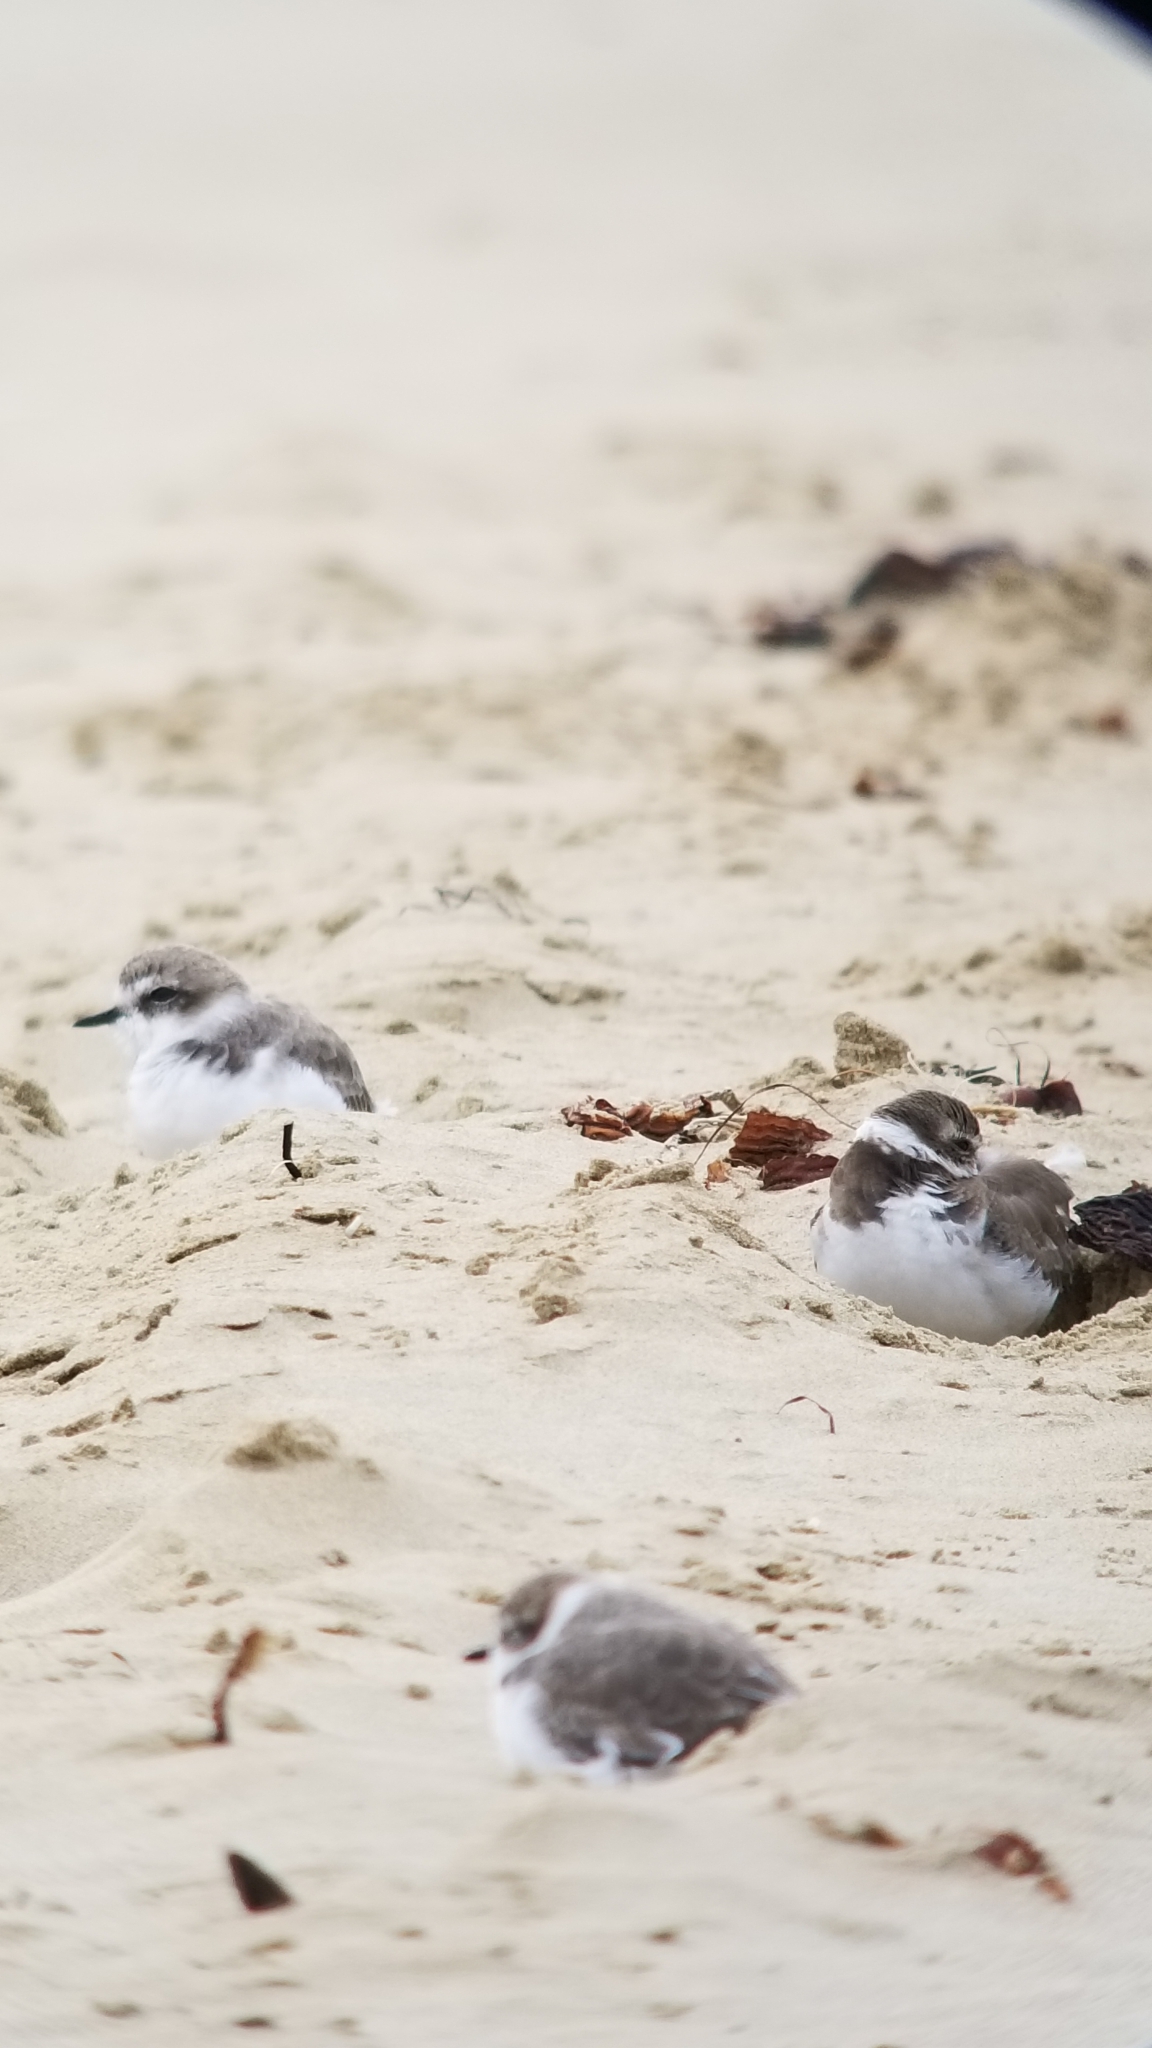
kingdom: Animalia
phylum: Chordata
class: Aves
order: Charadriiformes
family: Charadriidae
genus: Anarhynchus
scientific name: Anarhynchus
